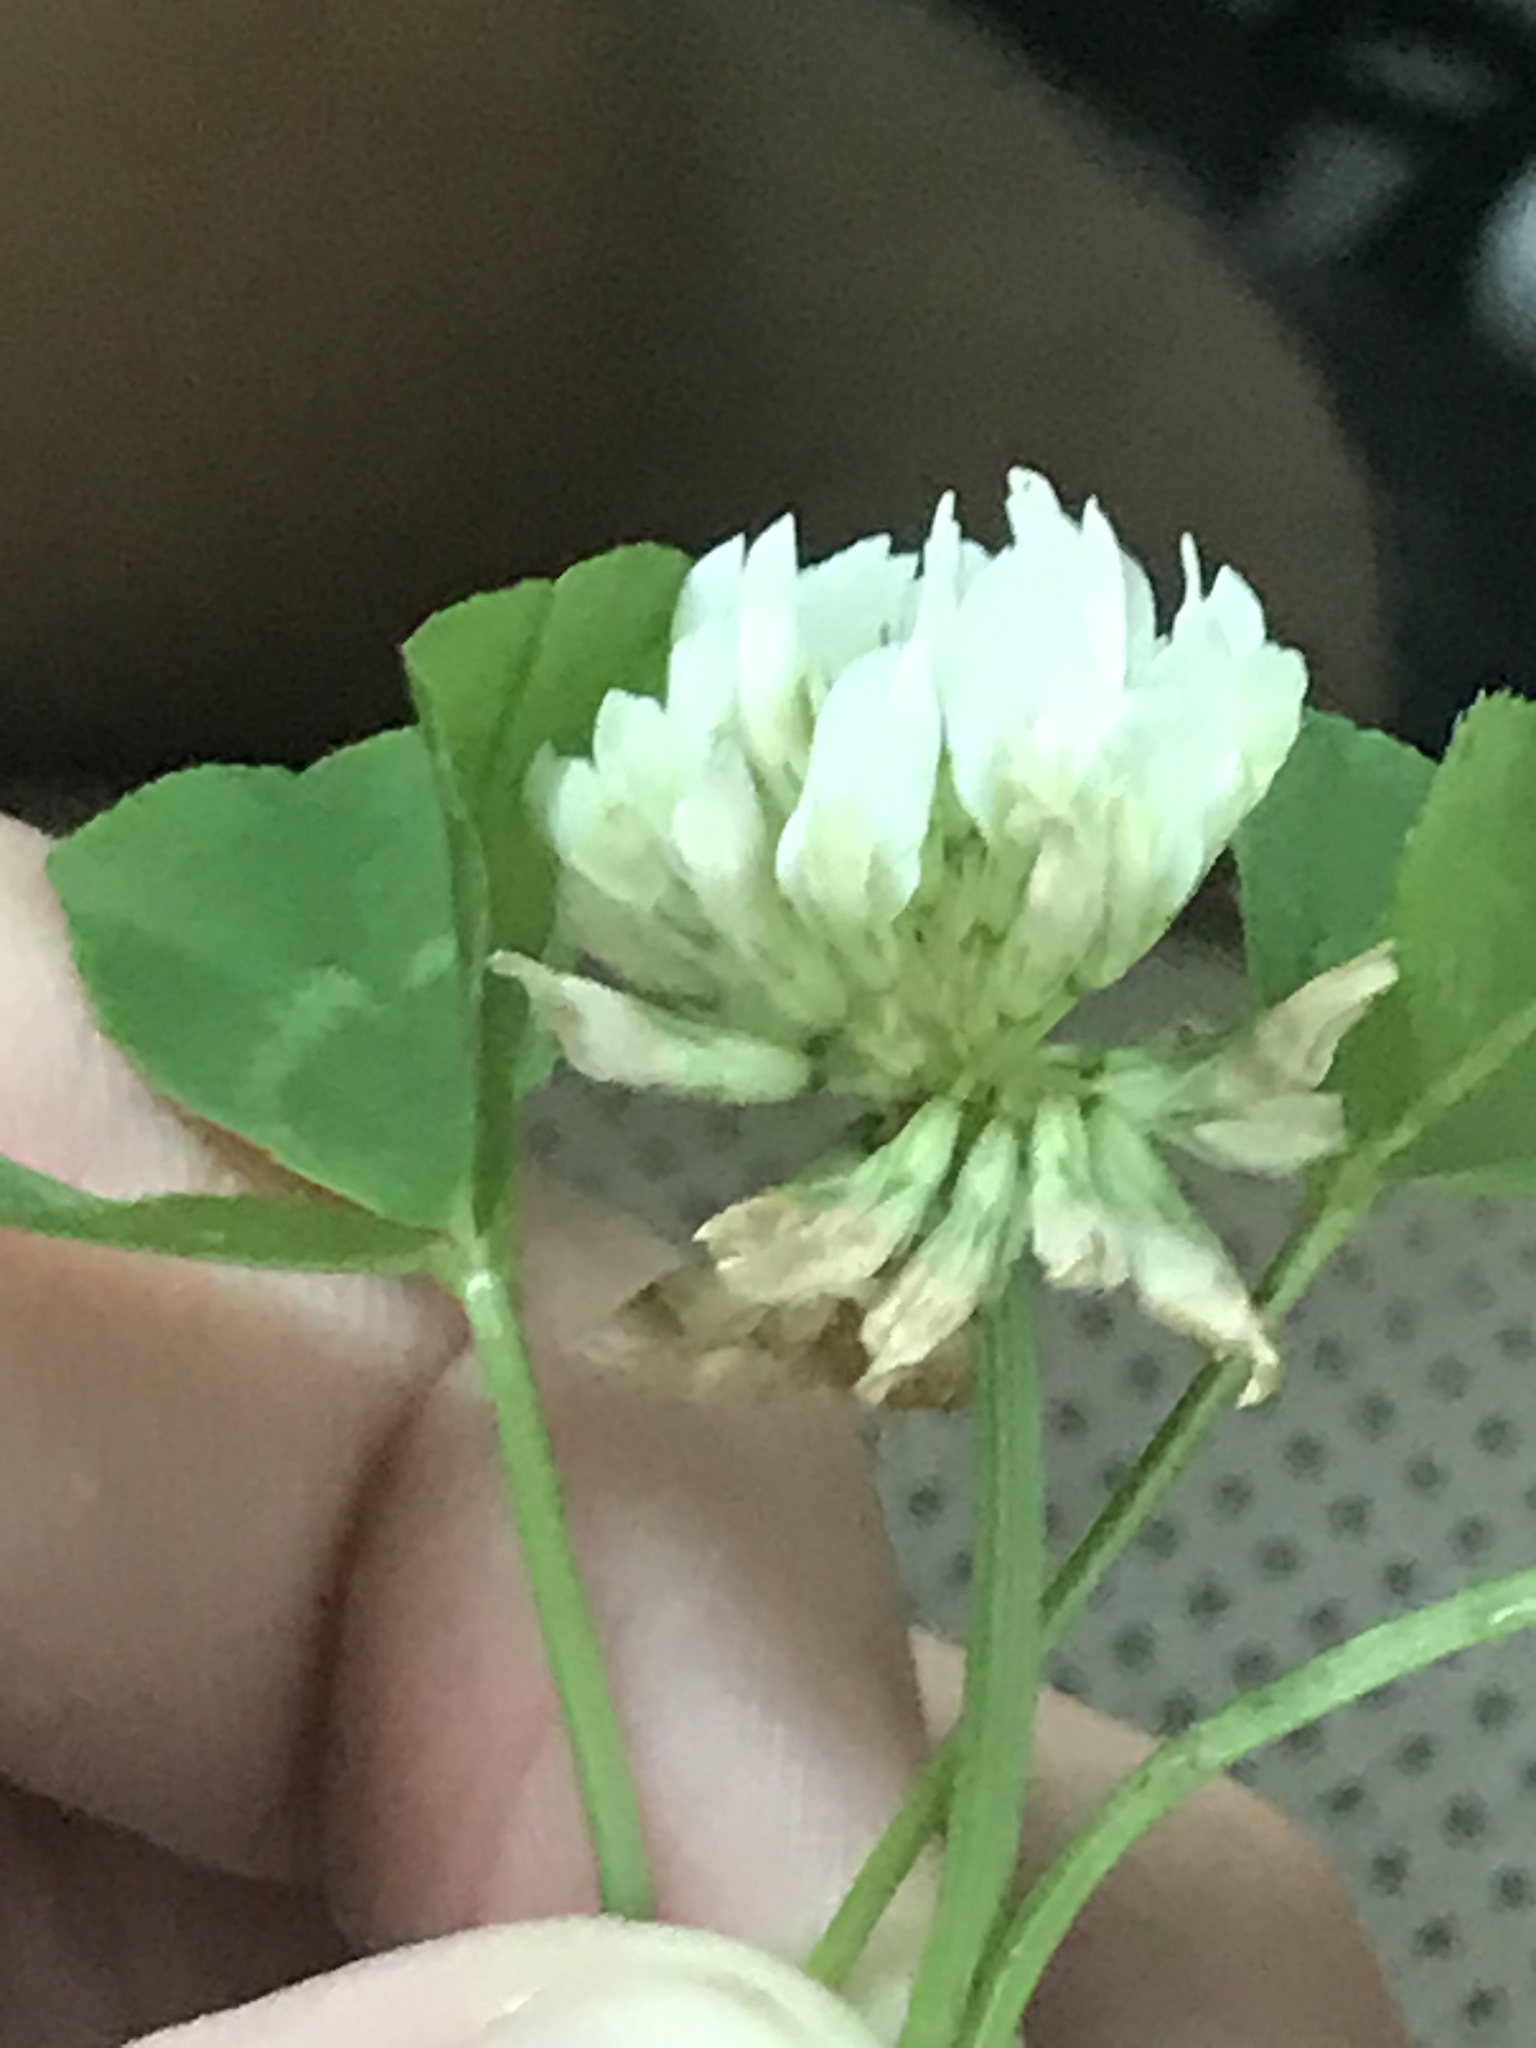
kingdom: Plantae
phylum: Tracheophyta
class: Magnoliopsida
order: Fabales
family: Fabaceae
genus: Trifolium
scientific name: Trifolium repens
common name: White clover
